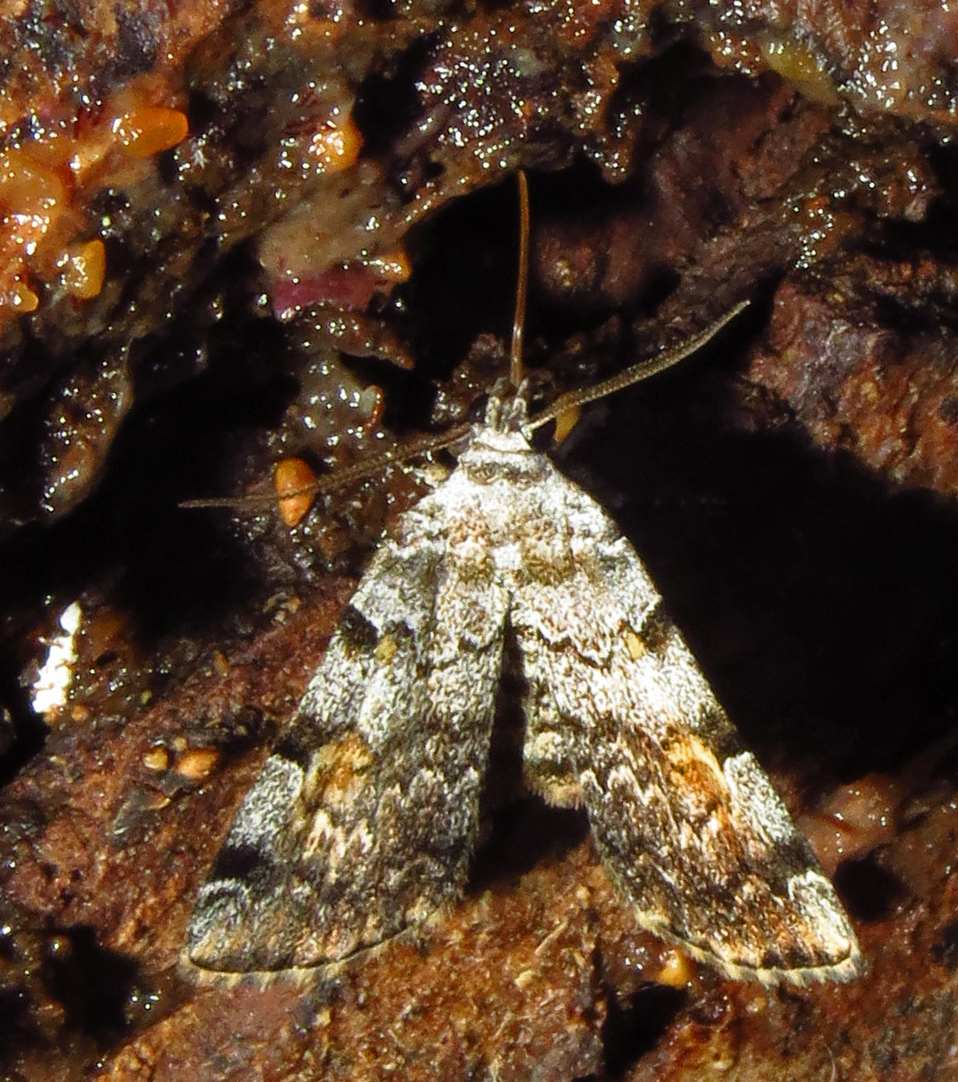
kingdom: Animalia
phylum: Arthropoda
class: Insecta
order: Lepidoptera
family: Erebidae
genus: Idia
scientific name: Idia americalis
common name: American idia moth
